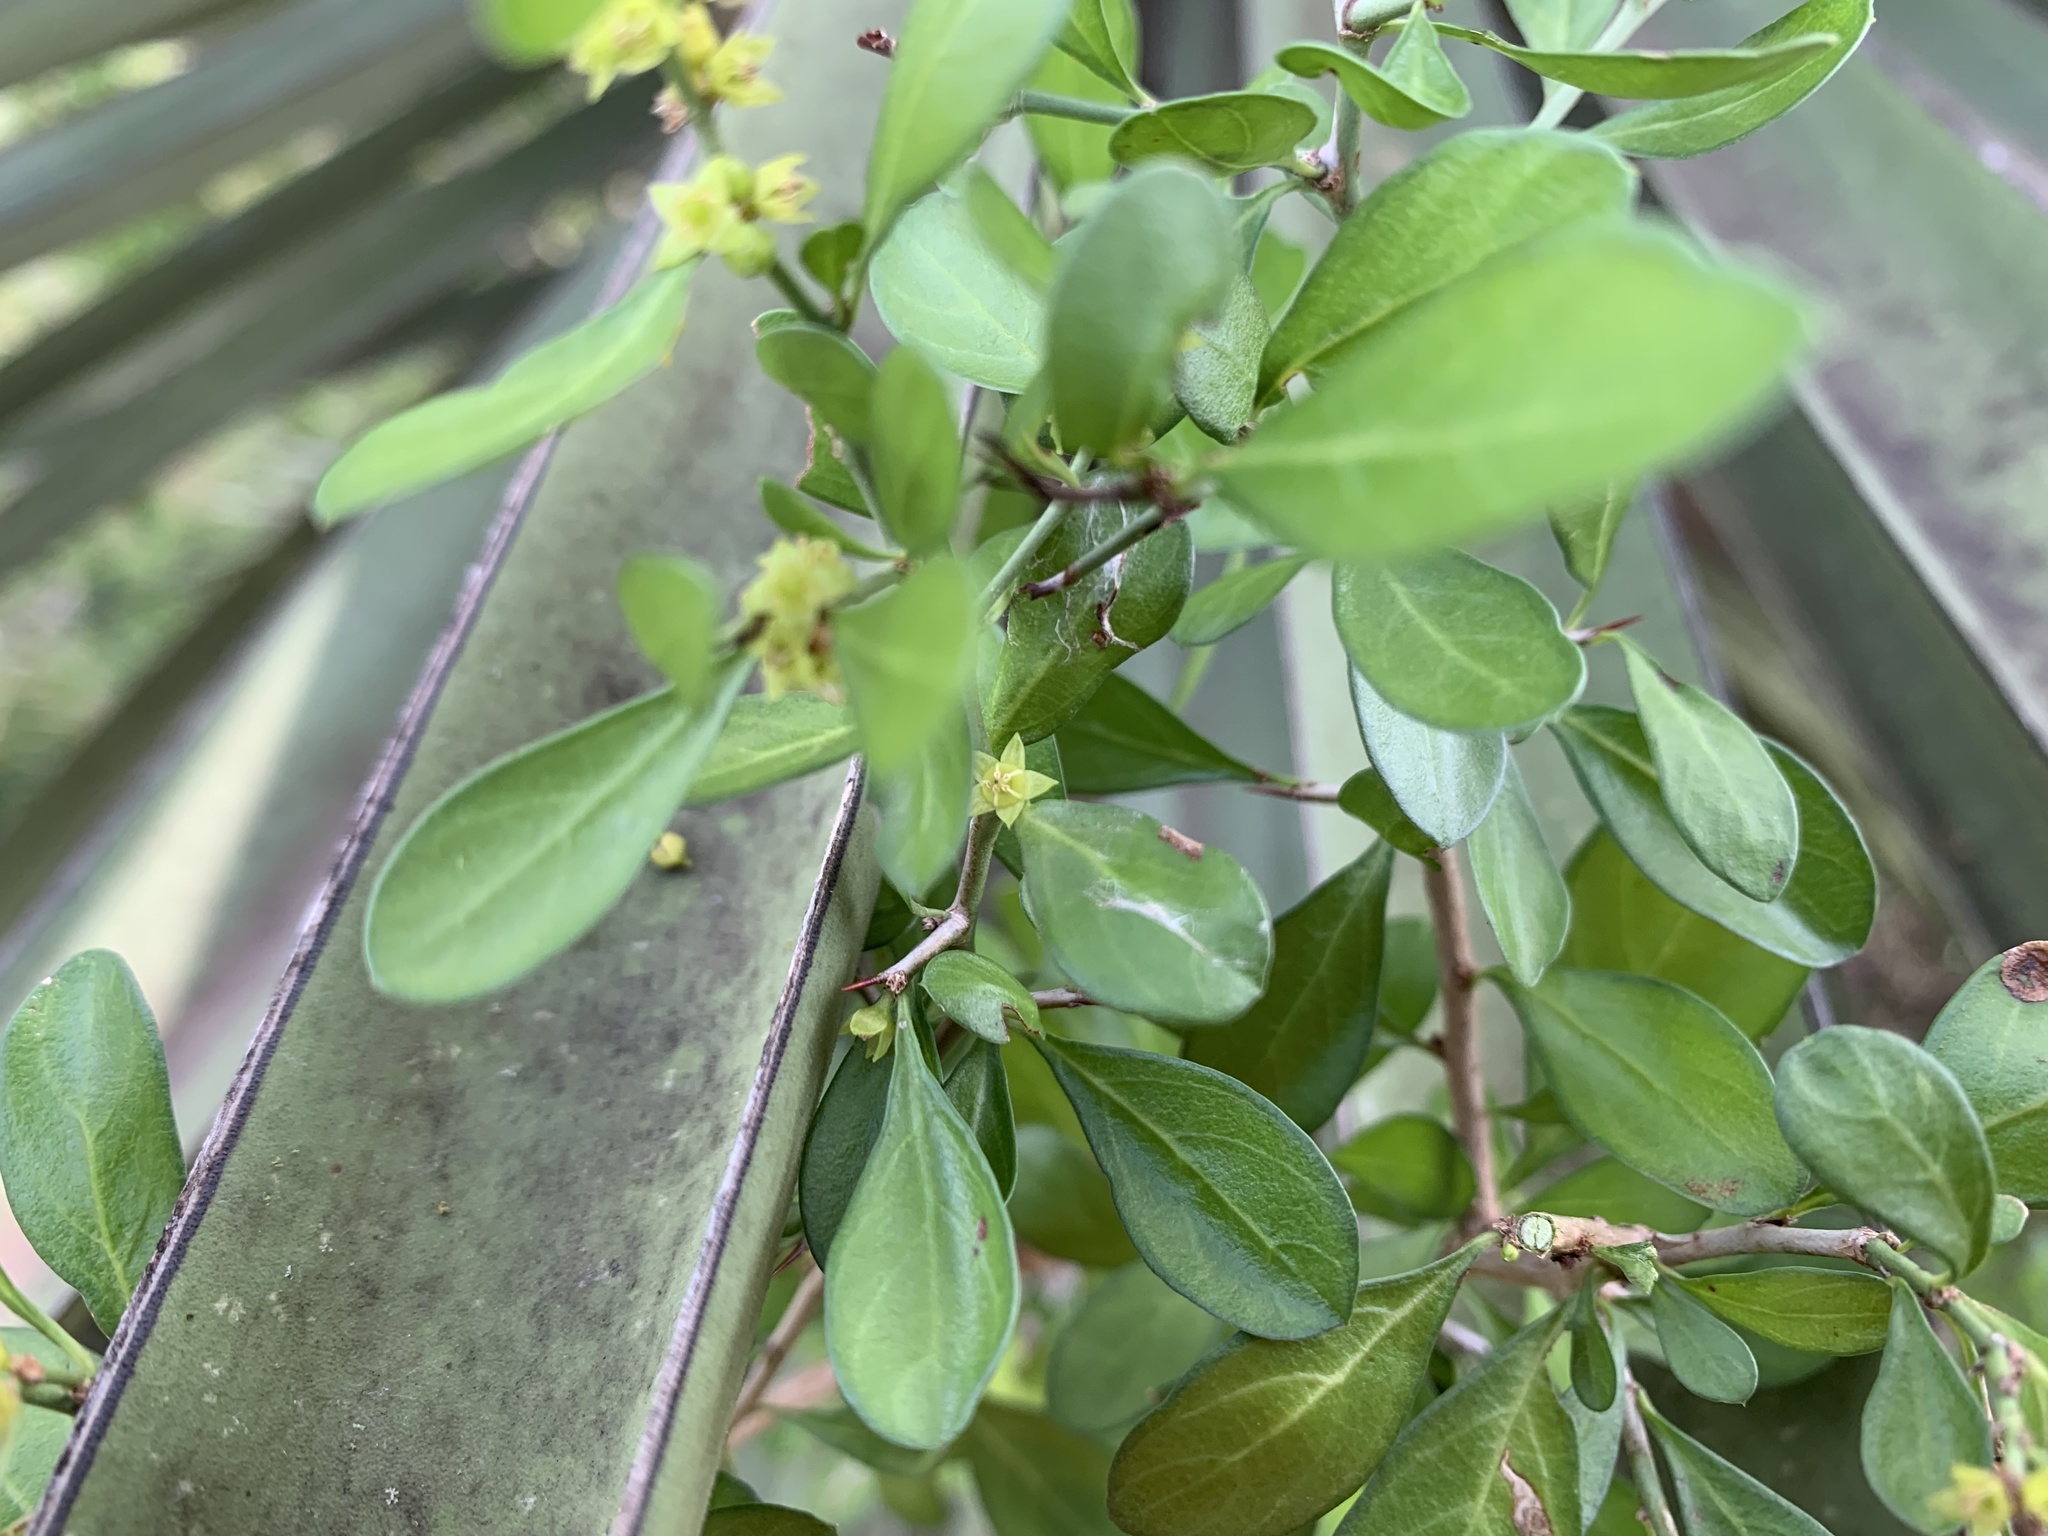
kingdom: Plantae
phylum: Tracheophyta
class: Magnoliopsida
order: Rosales
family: Rhamnaceae
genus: Condalia
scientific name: Condalia hookeri
